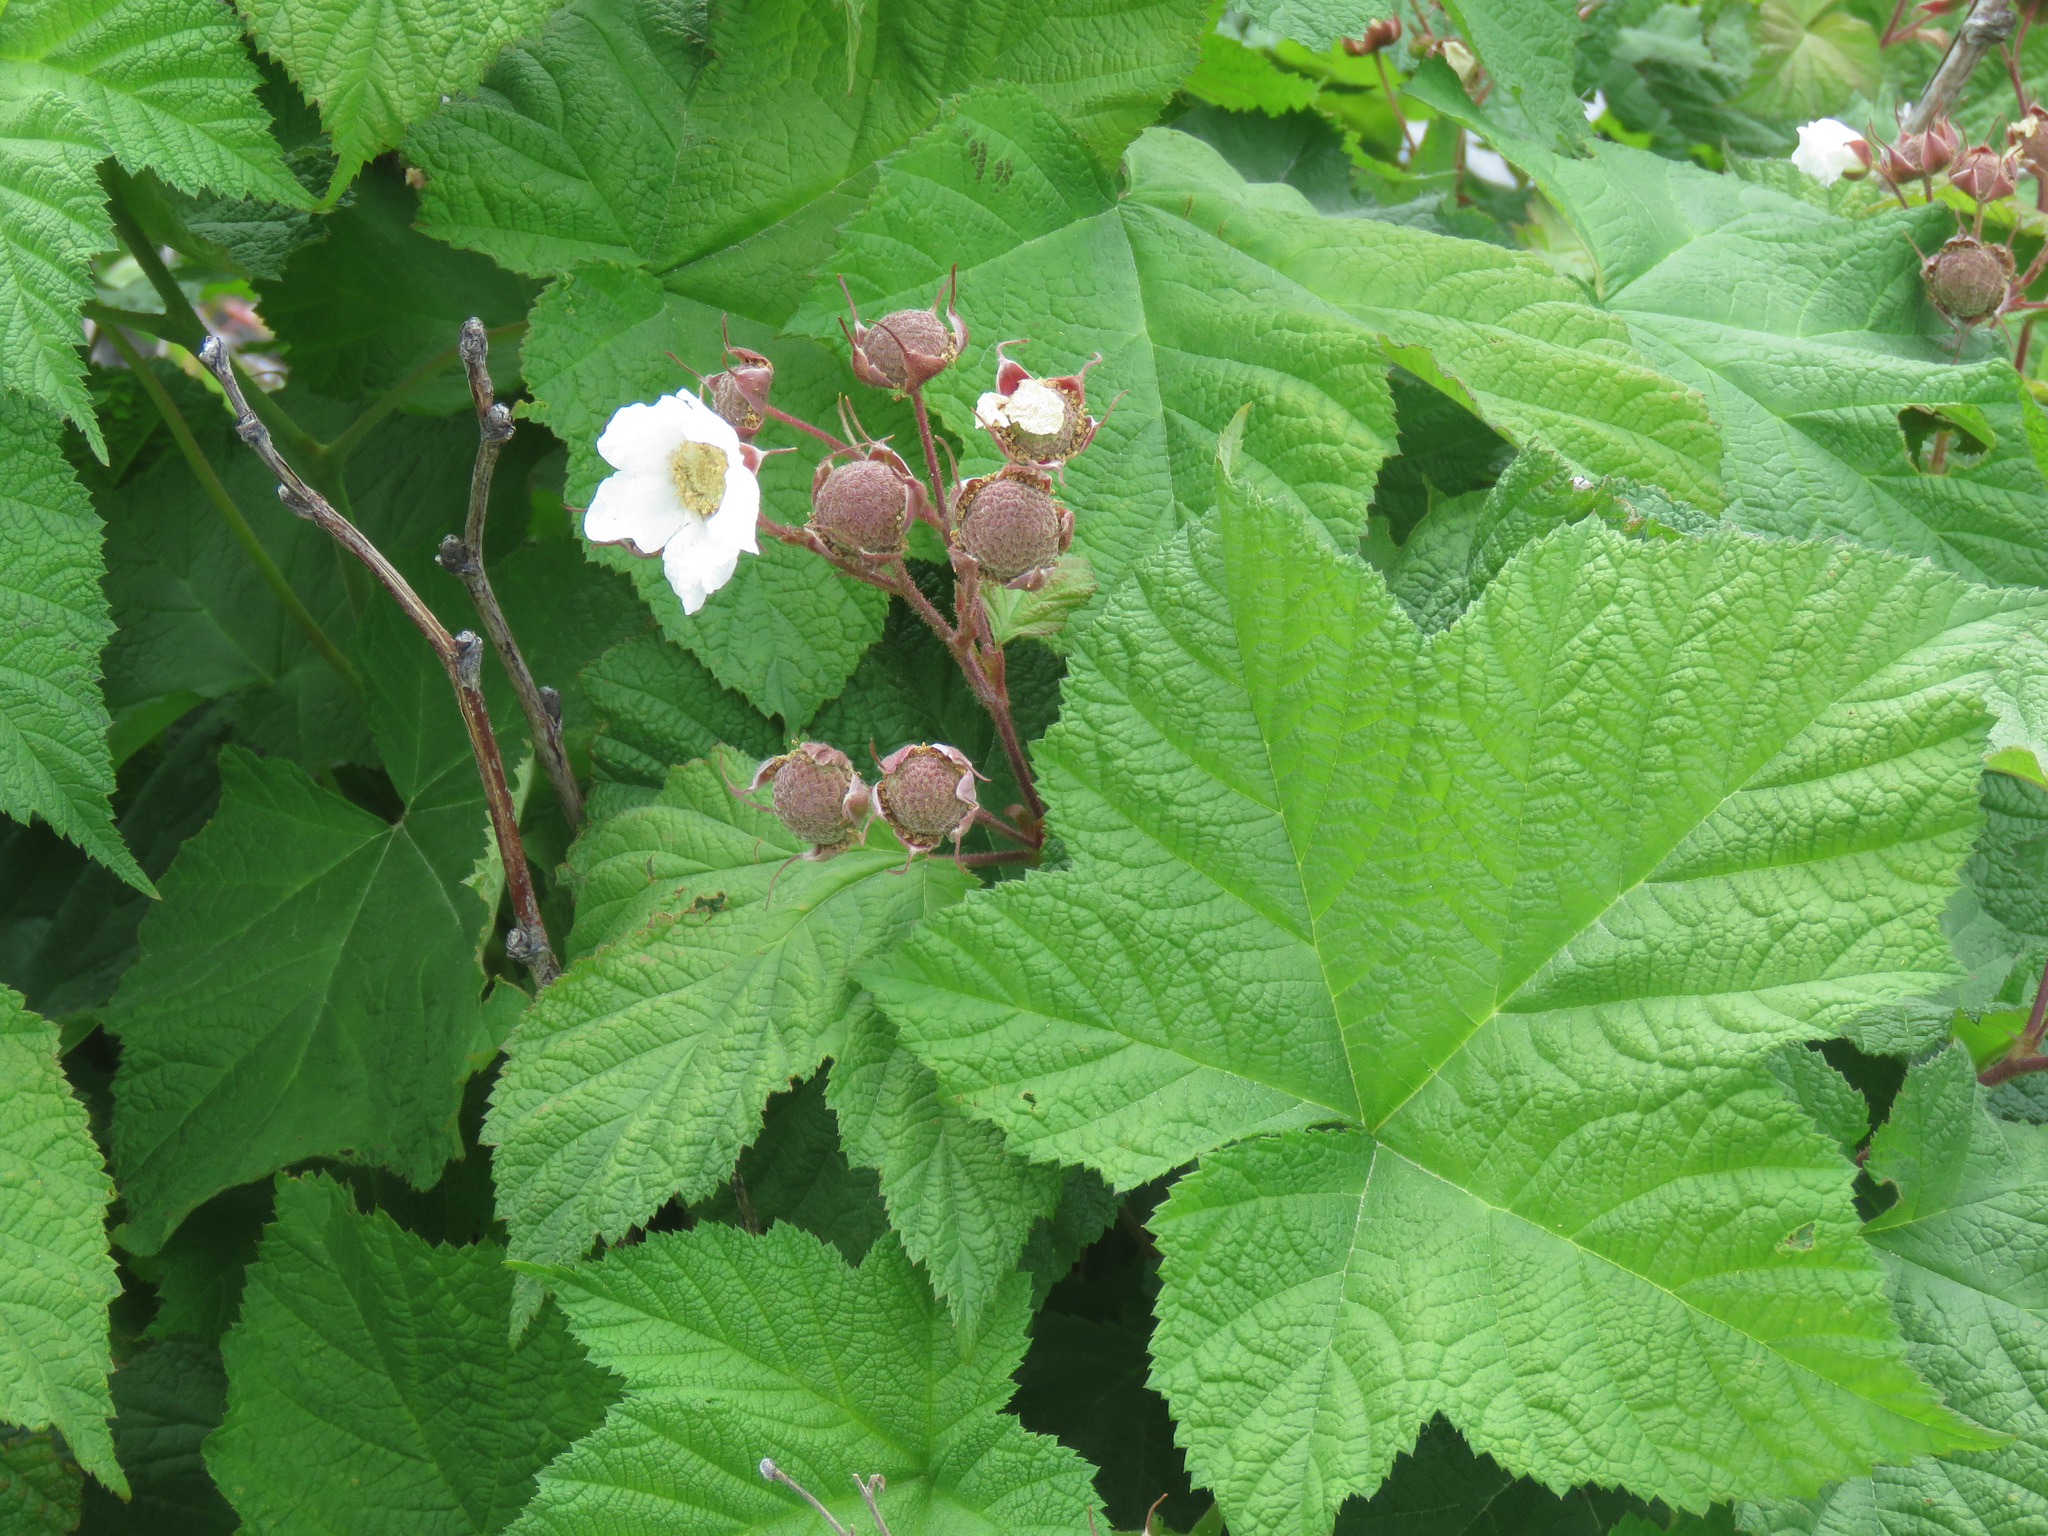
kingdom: Plantae
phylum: Tracheophyta
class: Magnoliopsida
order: Rosales
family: Rosaceae
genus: Rubus
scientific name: Rubus parviflorus
